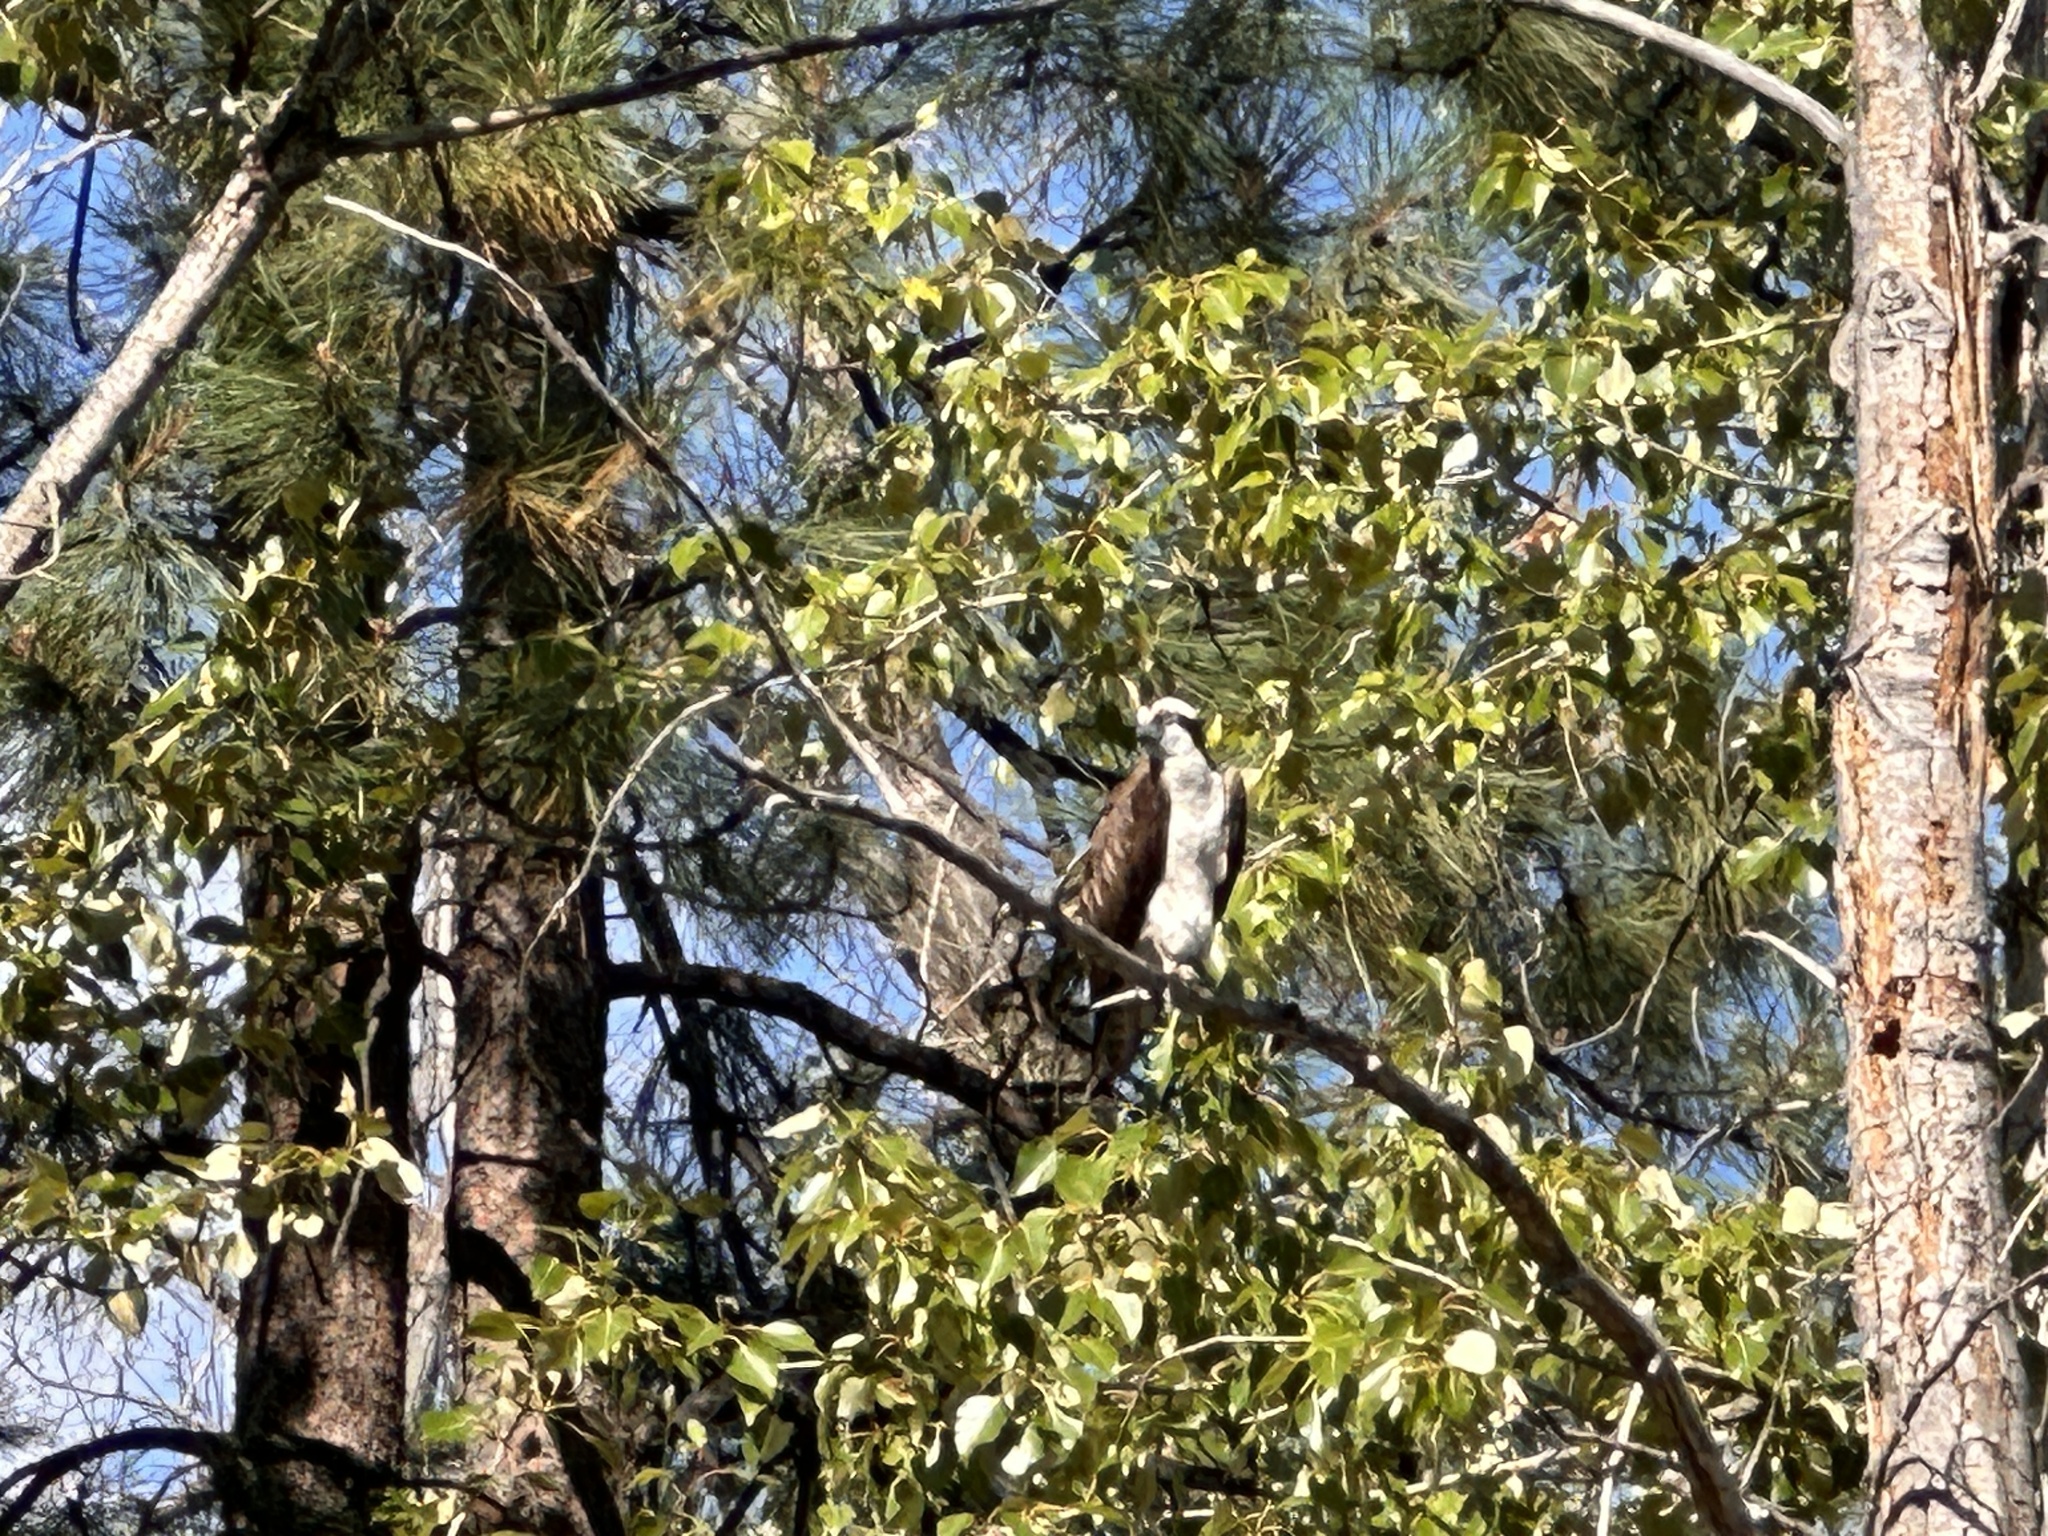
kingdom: Animalia
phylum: Chordata
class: Aves
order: Accipitriformes
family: Pandionidae
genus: Pandion
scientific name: Pandion haliaetus
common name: Osprey
